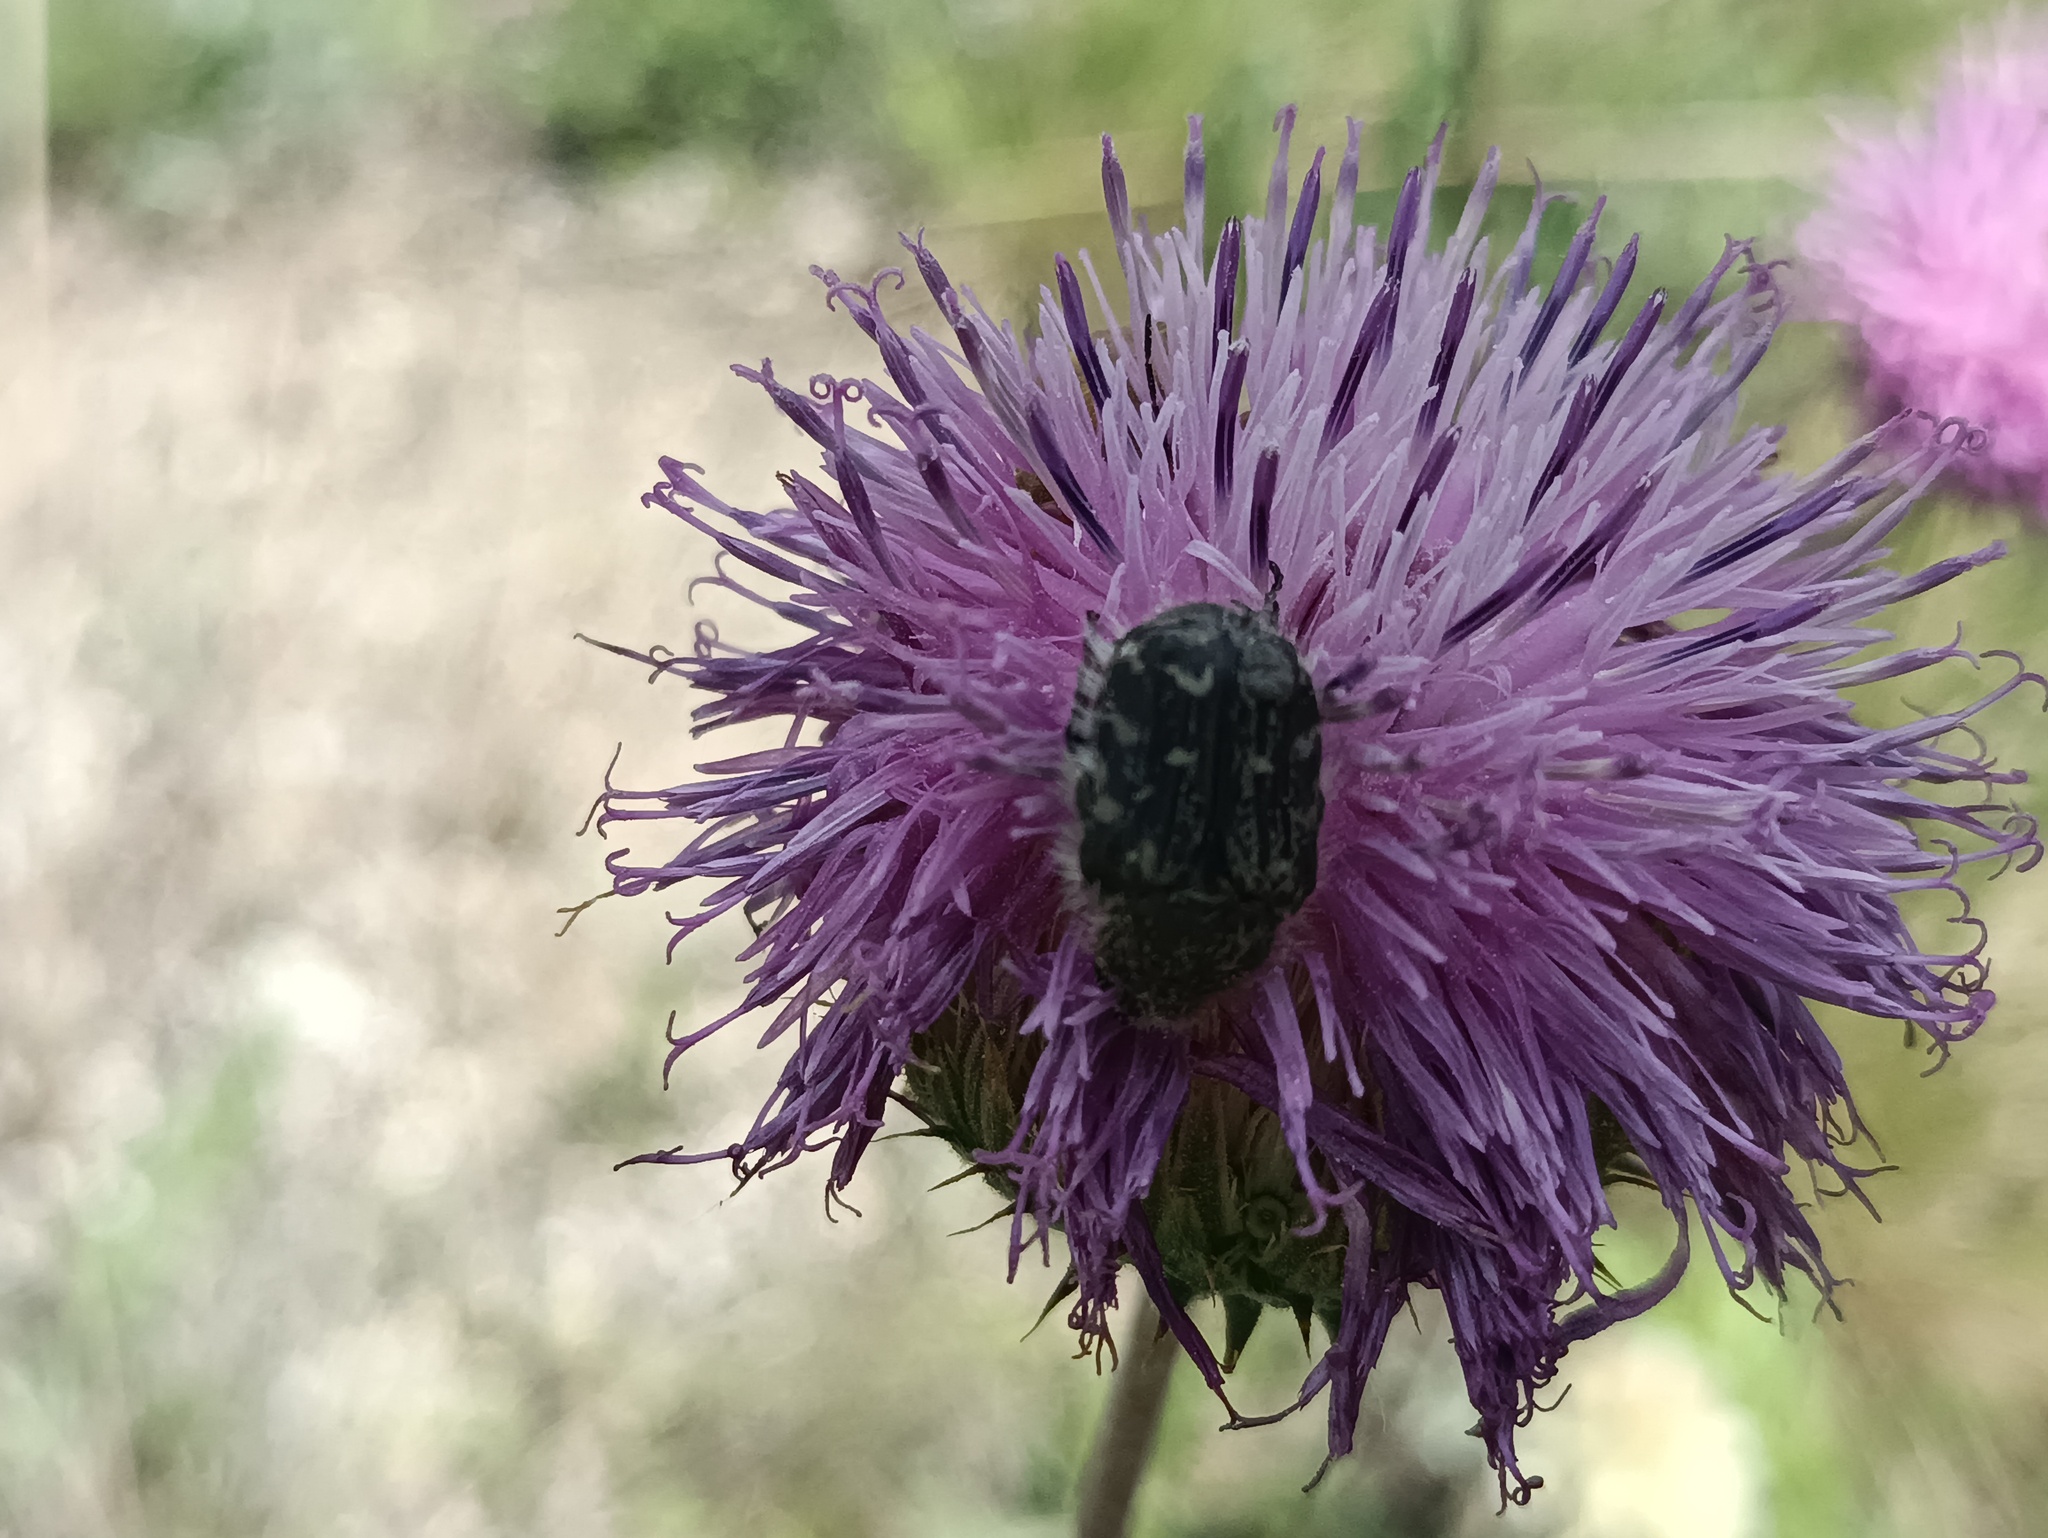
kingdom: Animalia
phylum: Arthropoda
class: Insecta
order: Coleoptera
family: Scarabaeidae
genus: Tropinota
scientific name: Tropinota hirta
